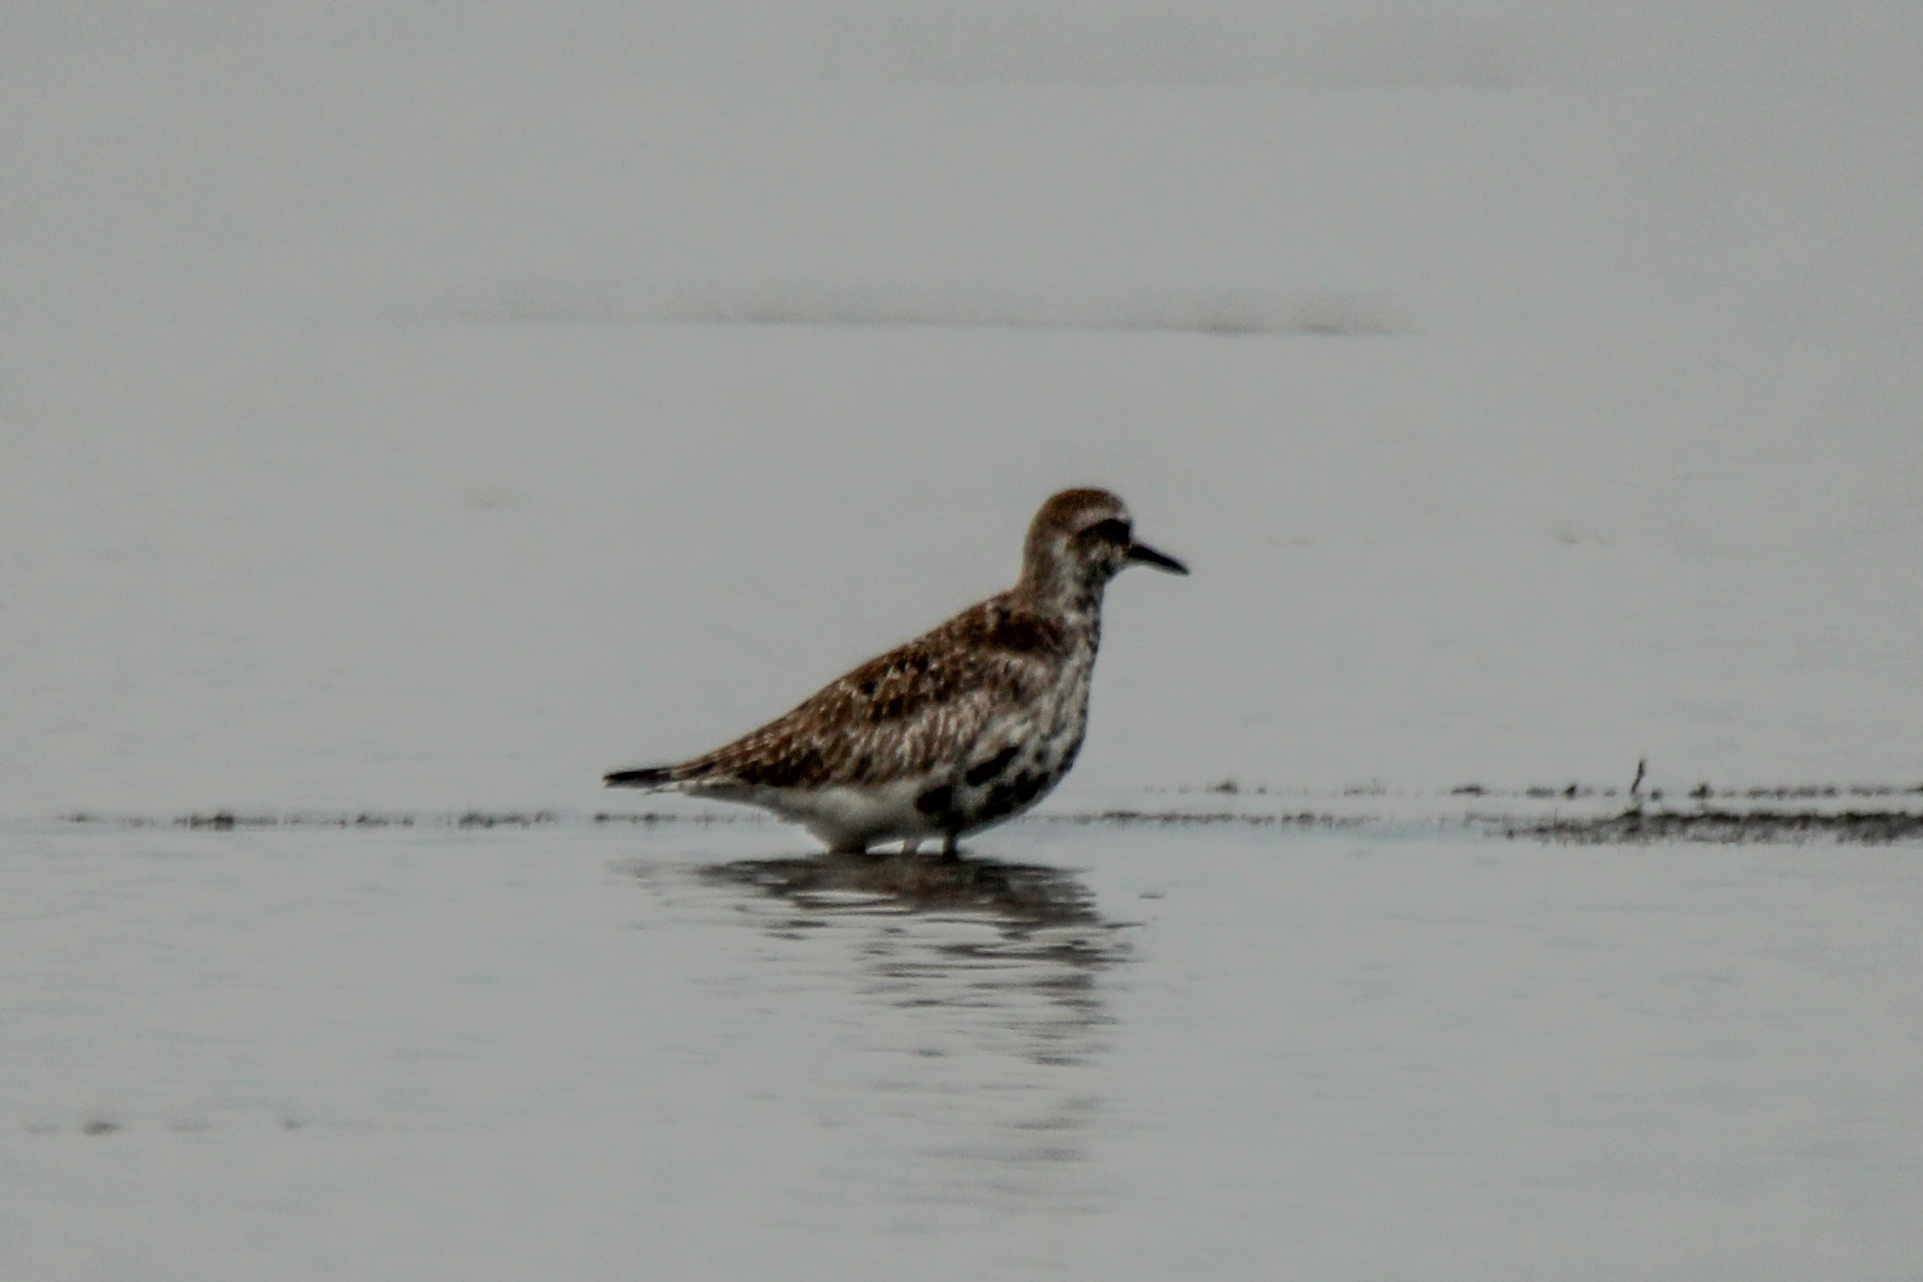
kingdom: Animalia
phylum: Chordata
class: Aves
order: Charadriiformes
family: Charadriidae
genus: Pluvialis
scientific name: Pluvialis squatarola
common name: Grey plover
